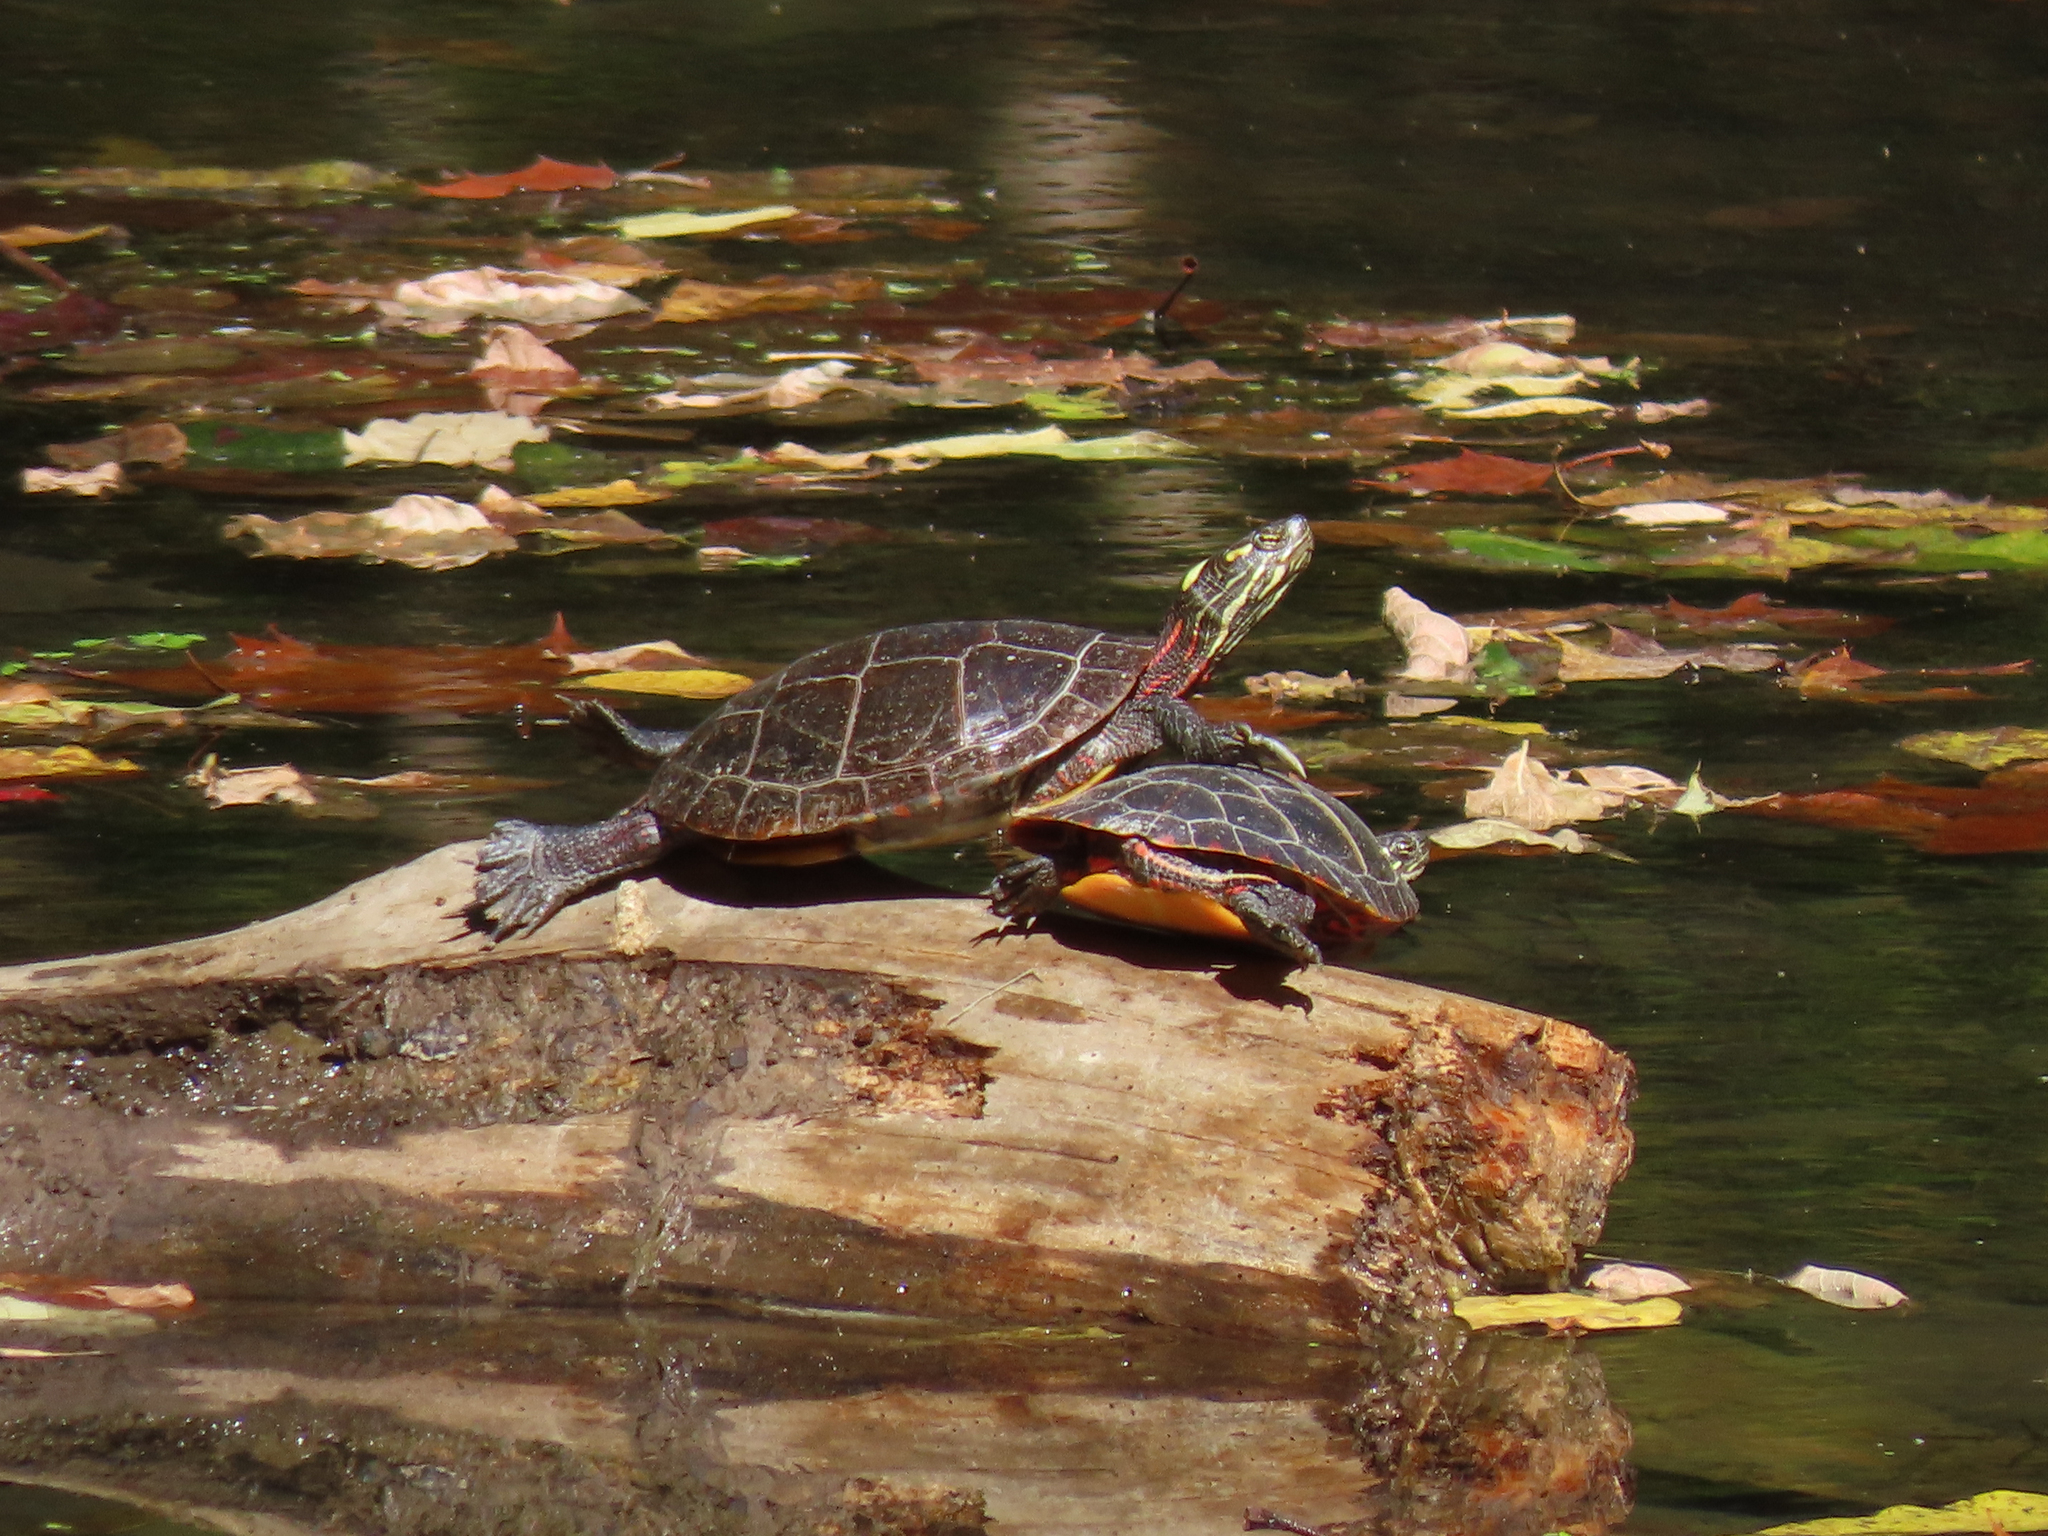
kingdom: Animalia
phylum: Chordata
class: Testudines
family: Emydidae
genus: Chrysemys
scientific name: Chrysemys picta
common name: Painted turtle
